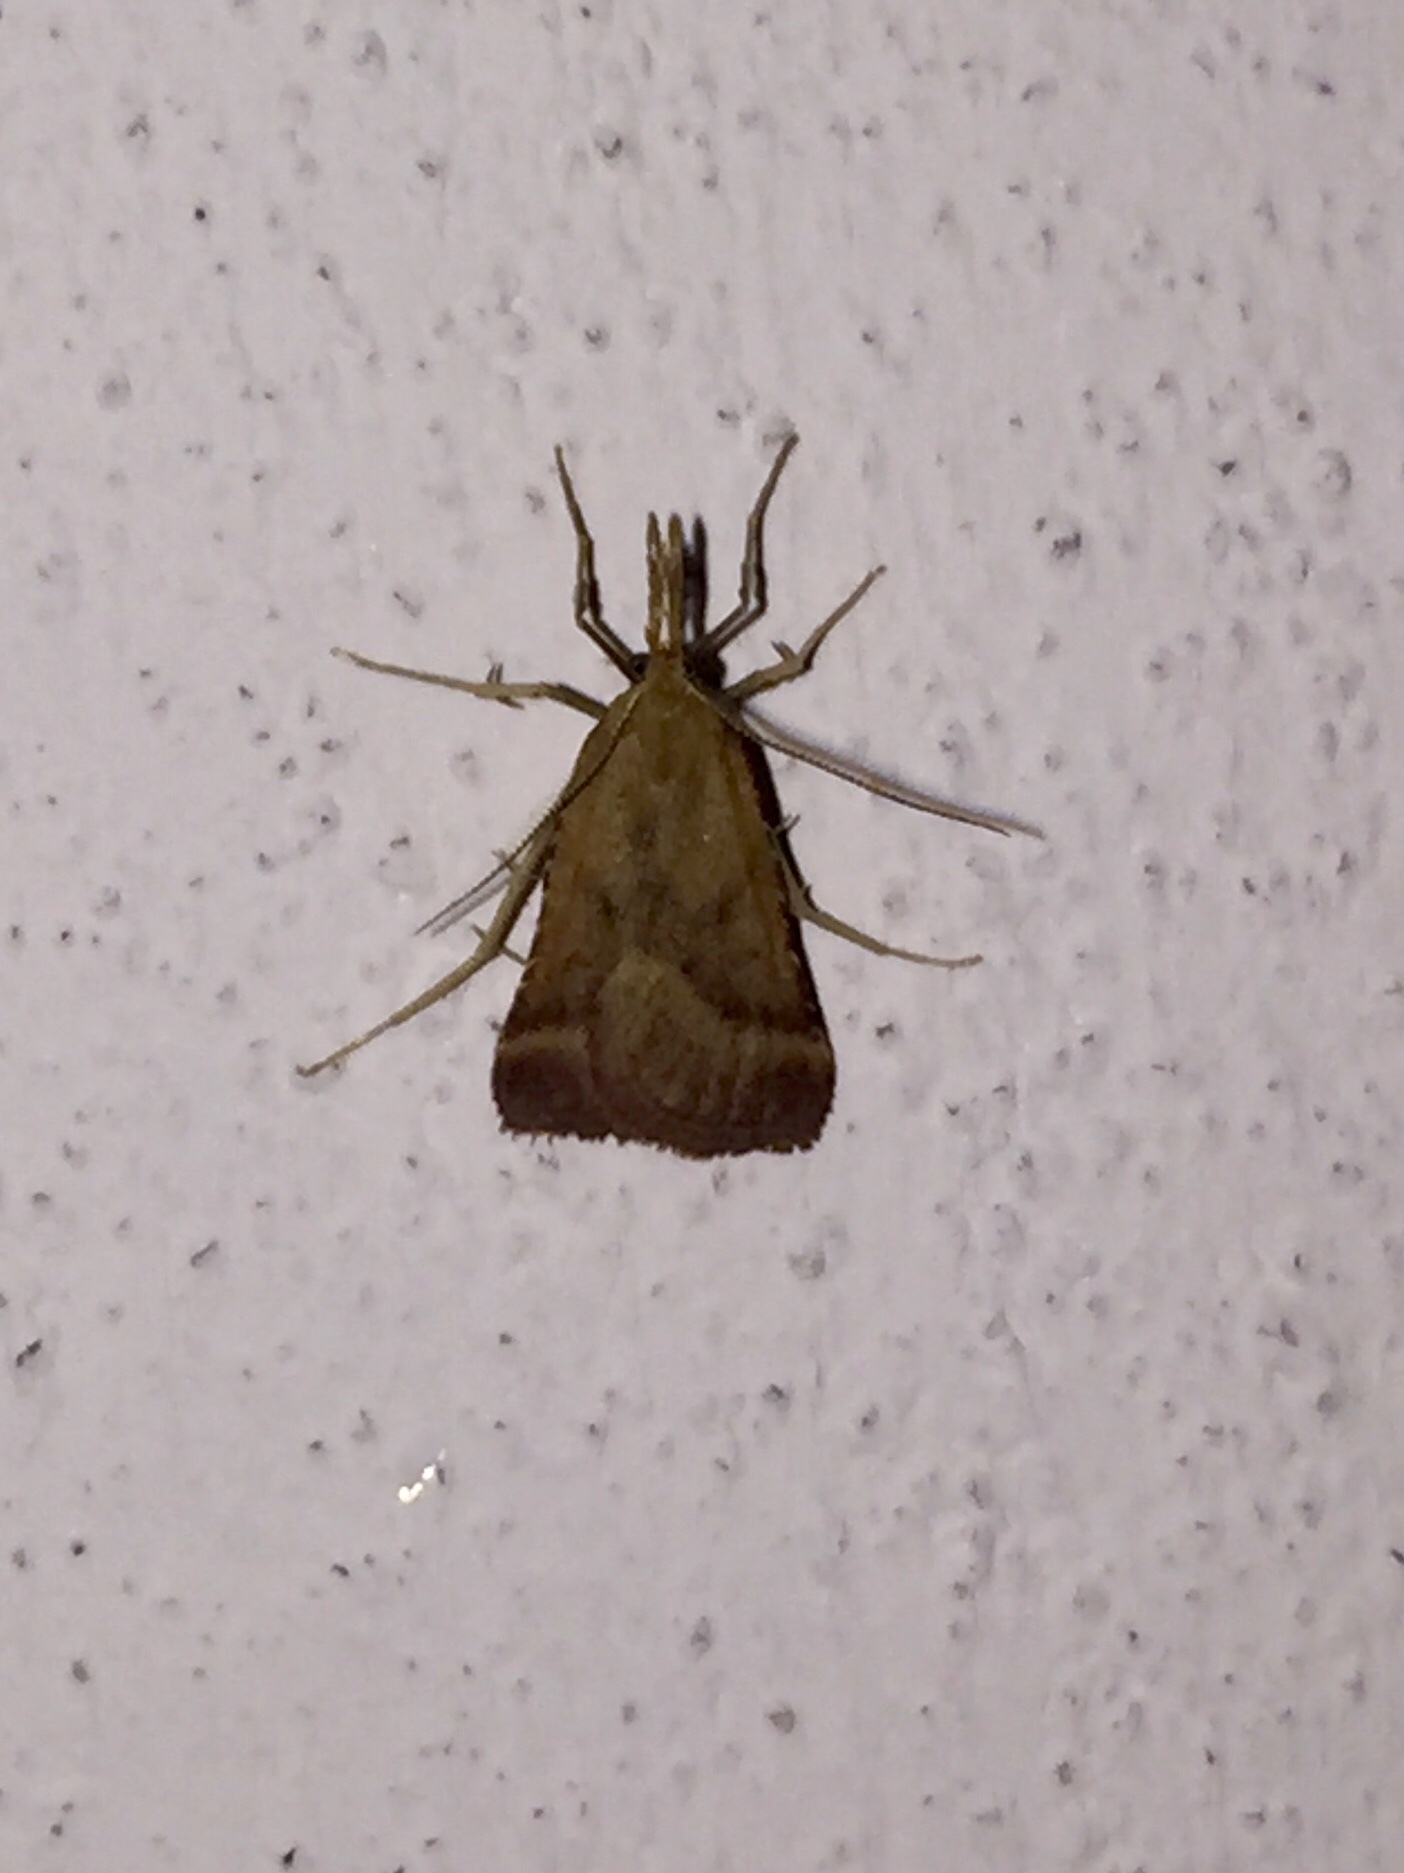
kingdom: Animalia
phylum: Arthropoda
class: Insecta
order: Lepidoptera
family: Pyralidae
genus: Synaphe
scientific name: Synaphe punctalis
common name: Long-legged tabby
